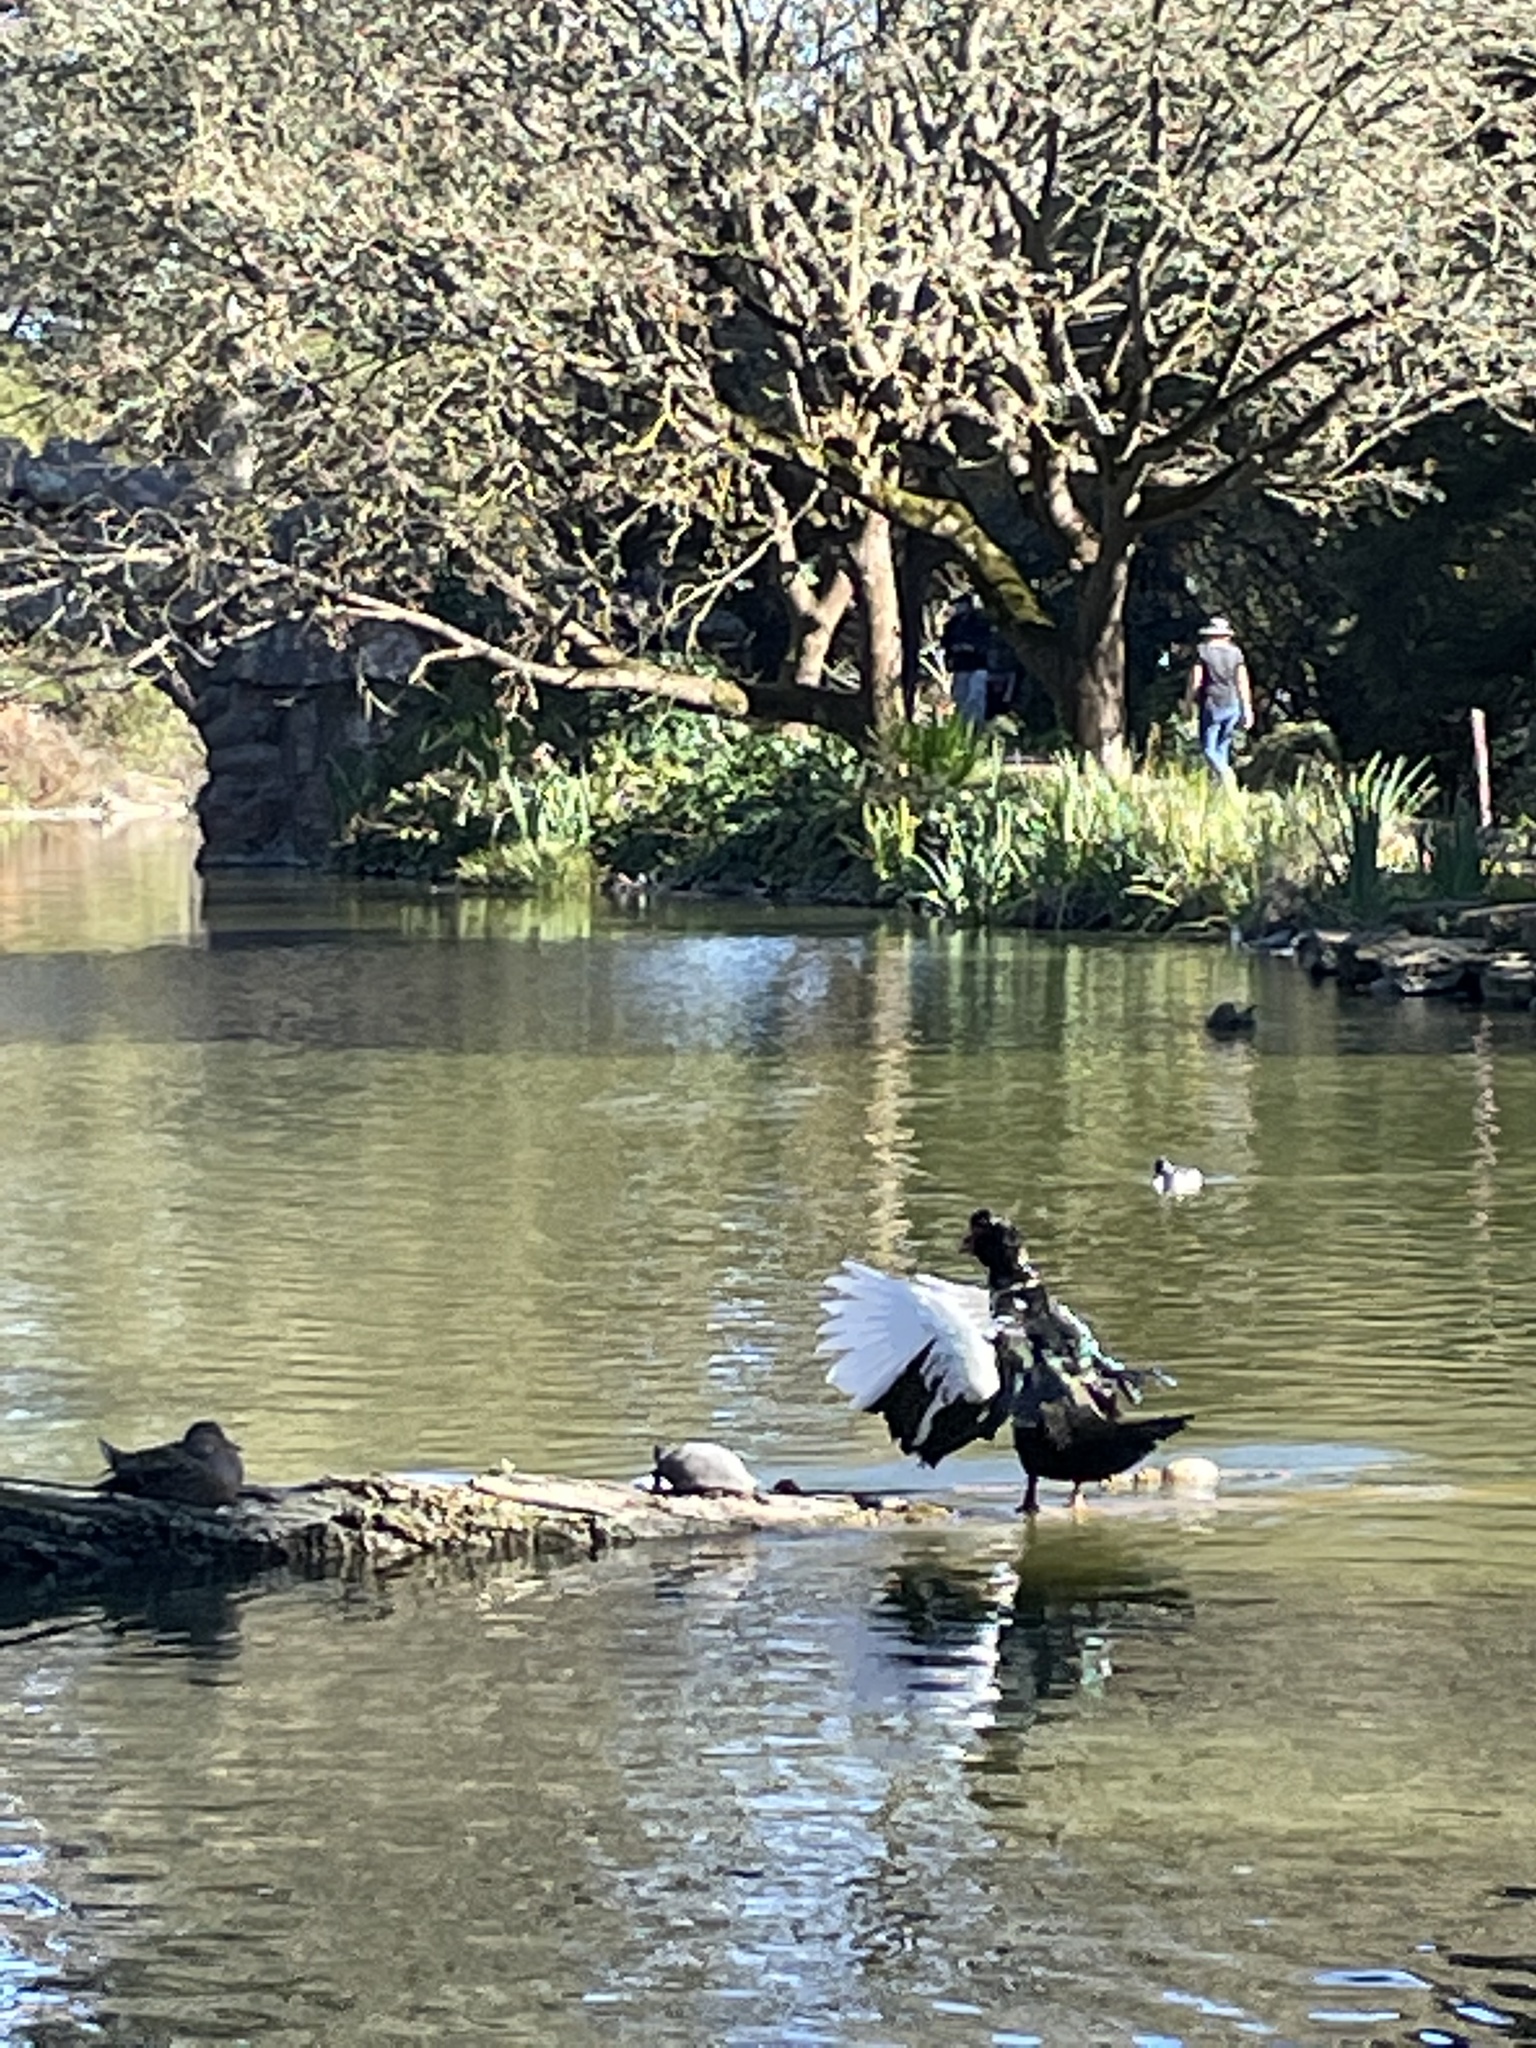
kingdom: Animalia
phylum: Chordata
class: Aves
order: Anseriformes
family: Anatidae
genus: Cairina
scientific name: Cairina moschata
